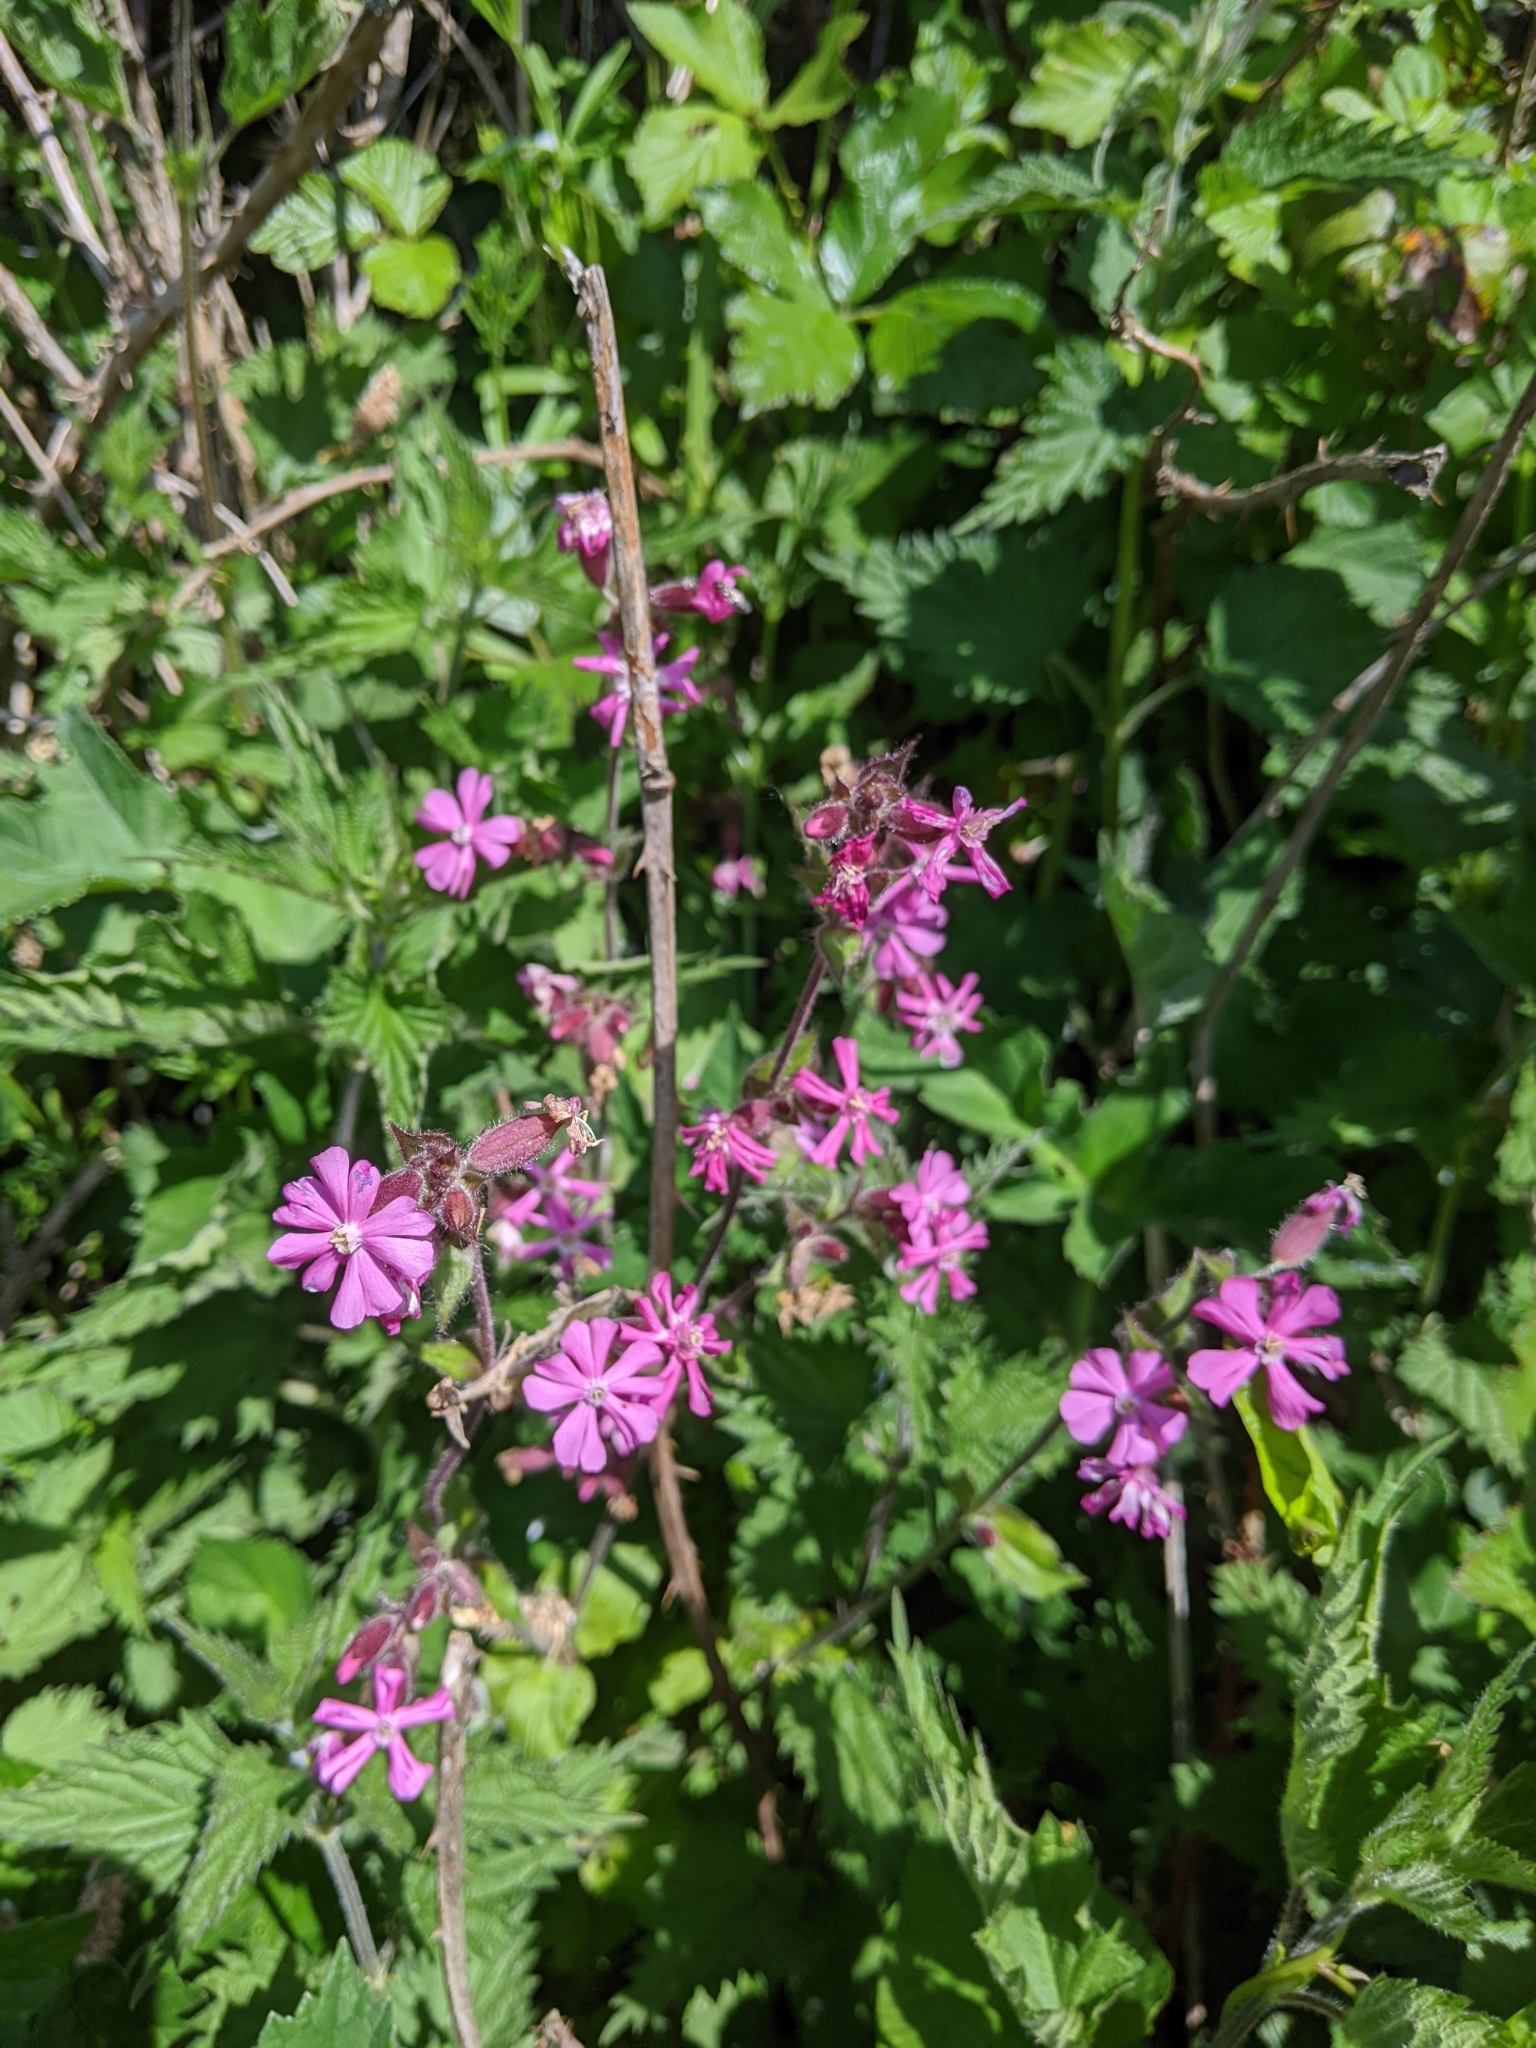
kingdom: Plantae
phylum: Tracheophyta
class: Magnoliopsida
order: Caryophyllales
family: Caryophyllaceae
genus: Silene
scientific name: Silene dioica
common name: Red campion
